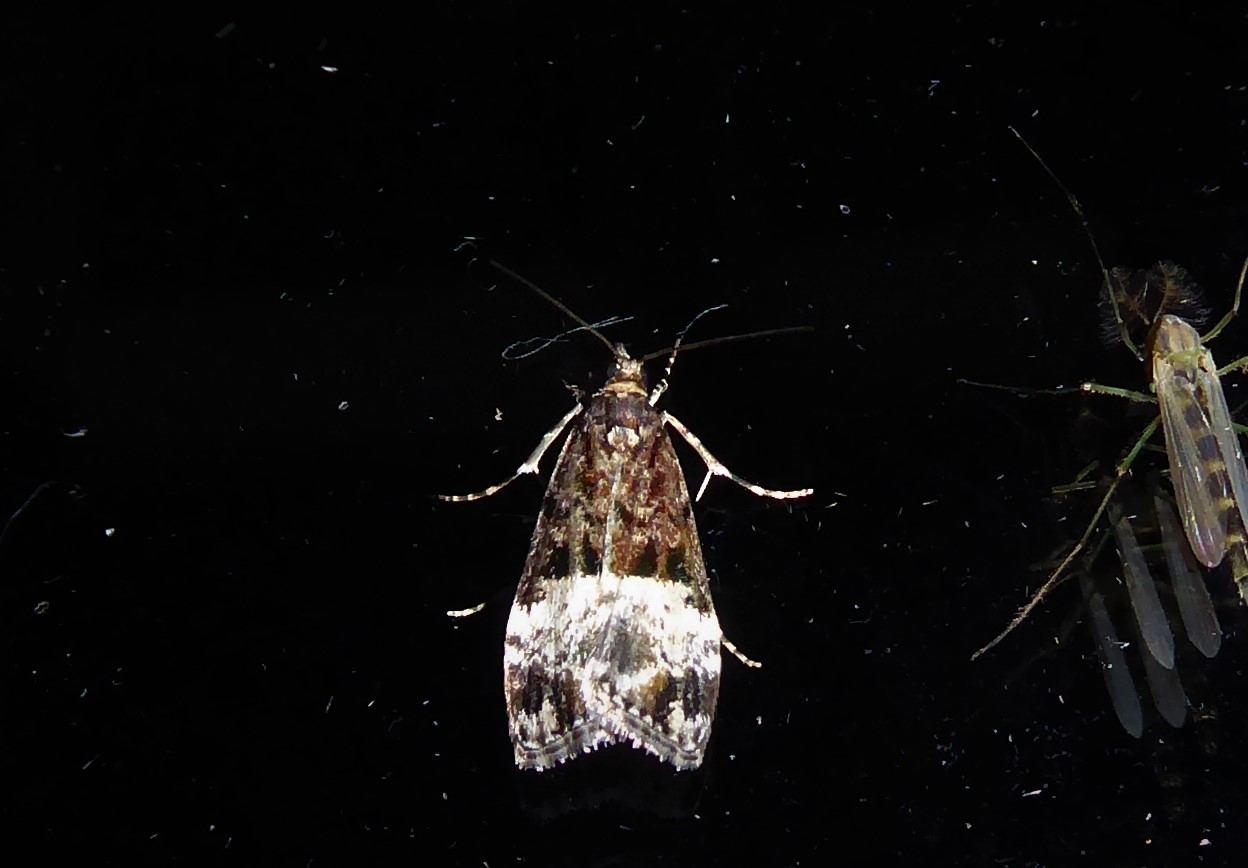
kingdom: Animalia
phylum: Arthropoda
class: Insecta
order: Lepidoptera
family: Crambidae
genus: Scoparia
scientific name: Scoparia minusculalis
